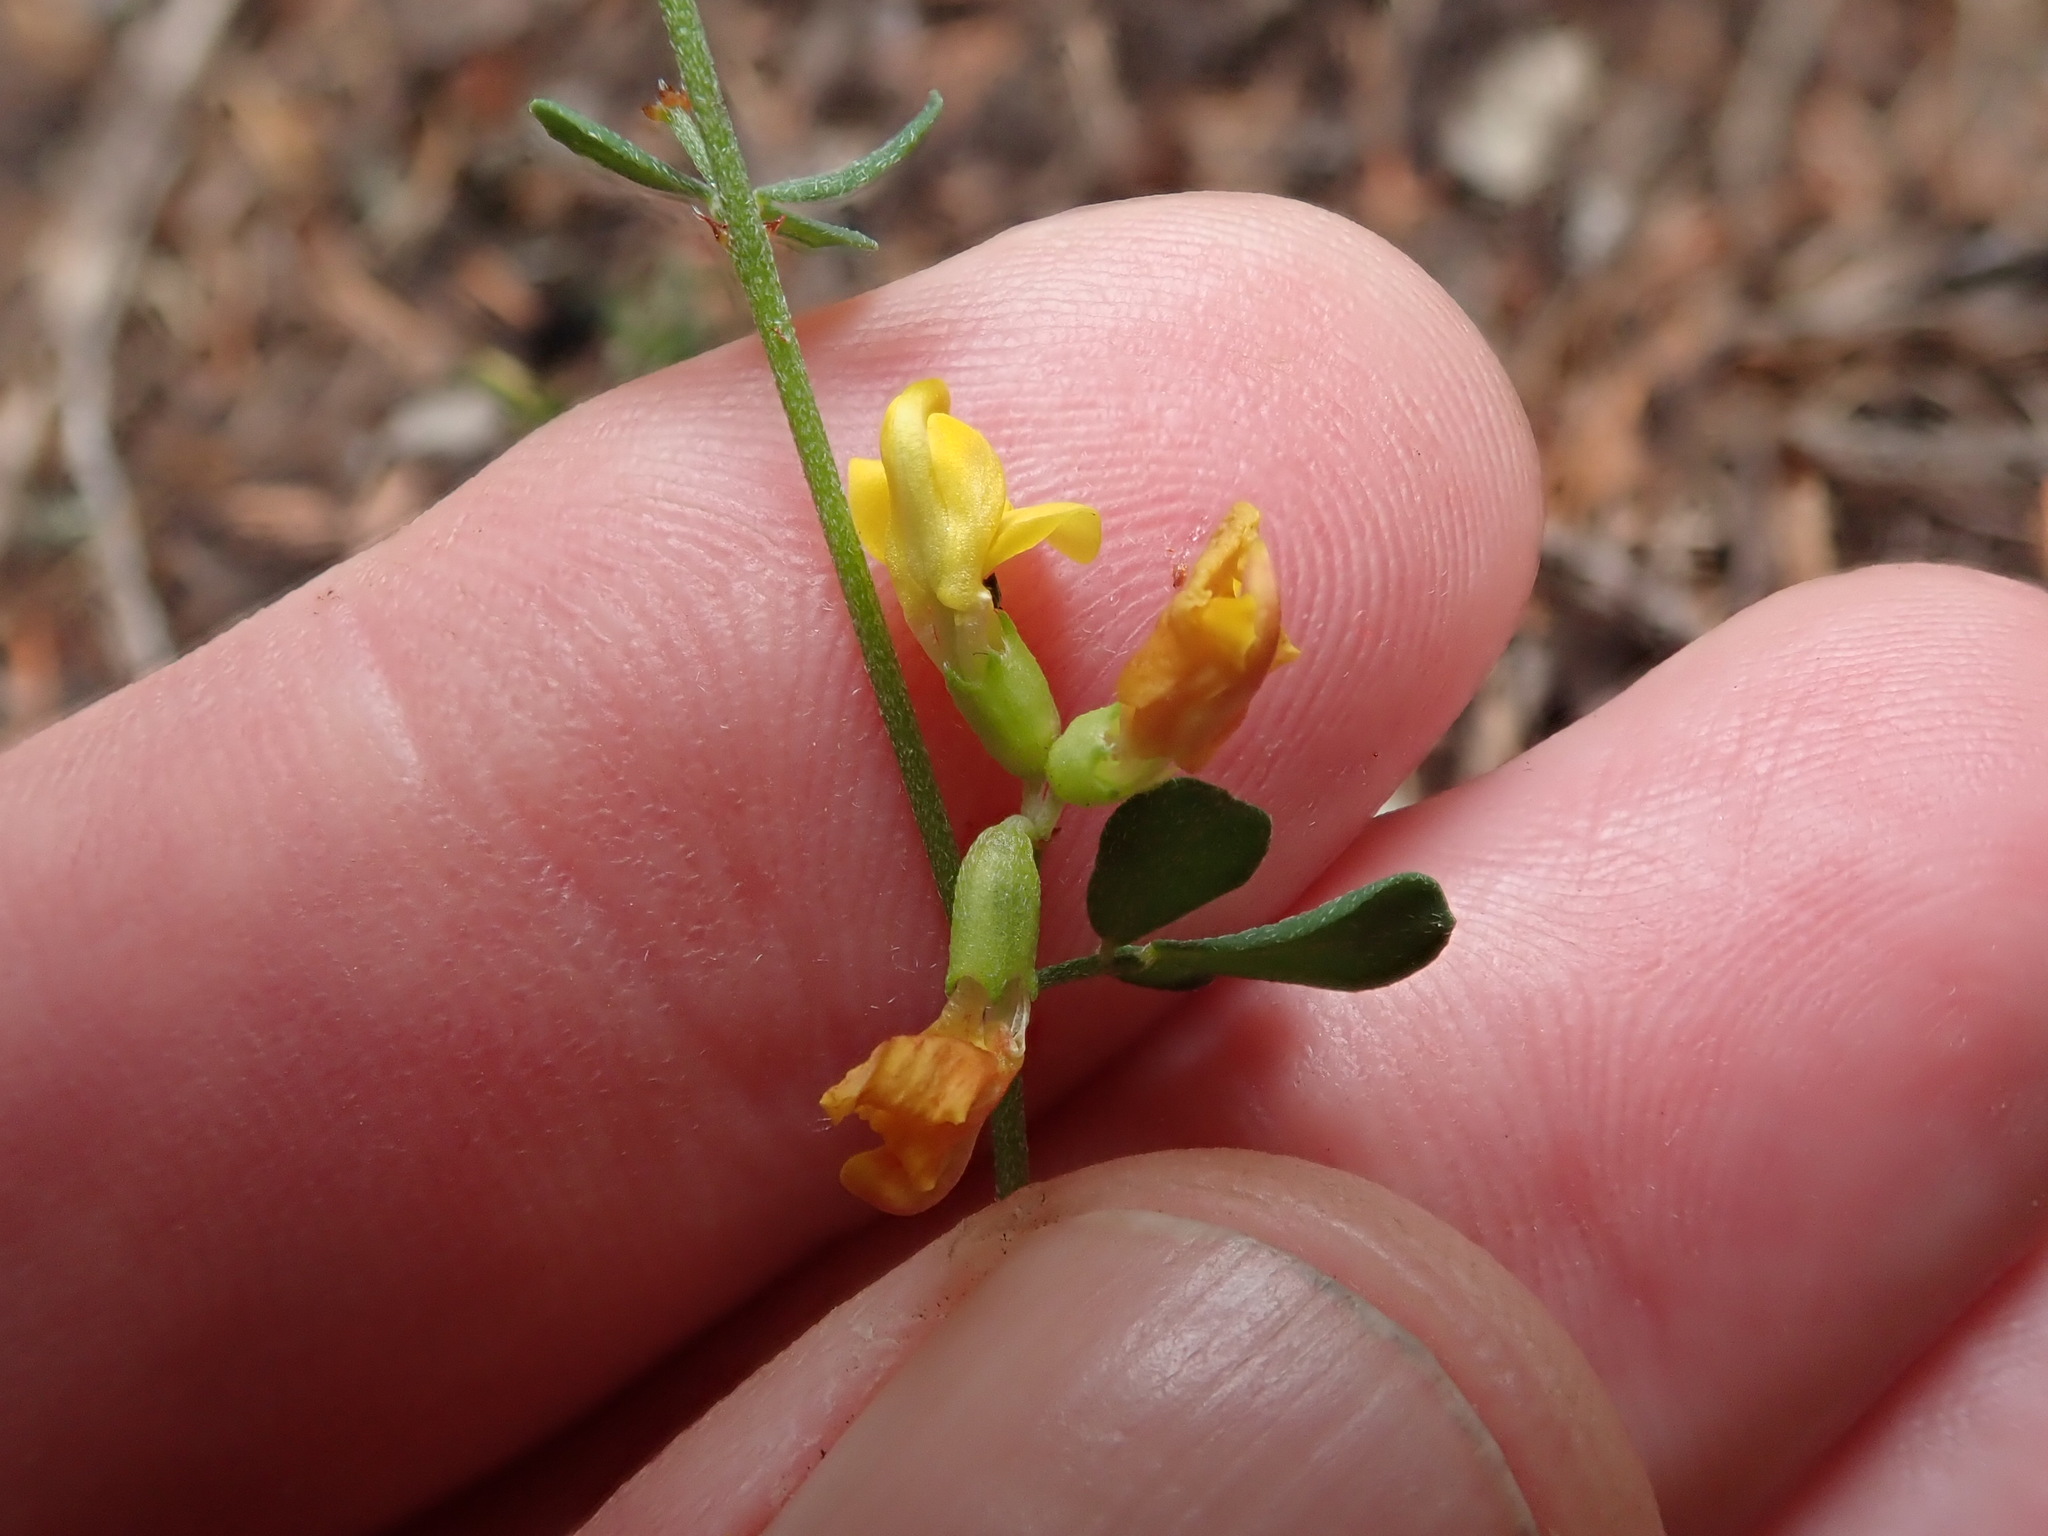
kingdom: Plantae
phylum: Tracheophyta
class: Magnoliopsida
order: Fabales
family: Fabaceae
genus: Acmispon
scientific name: Acmispon junceus
